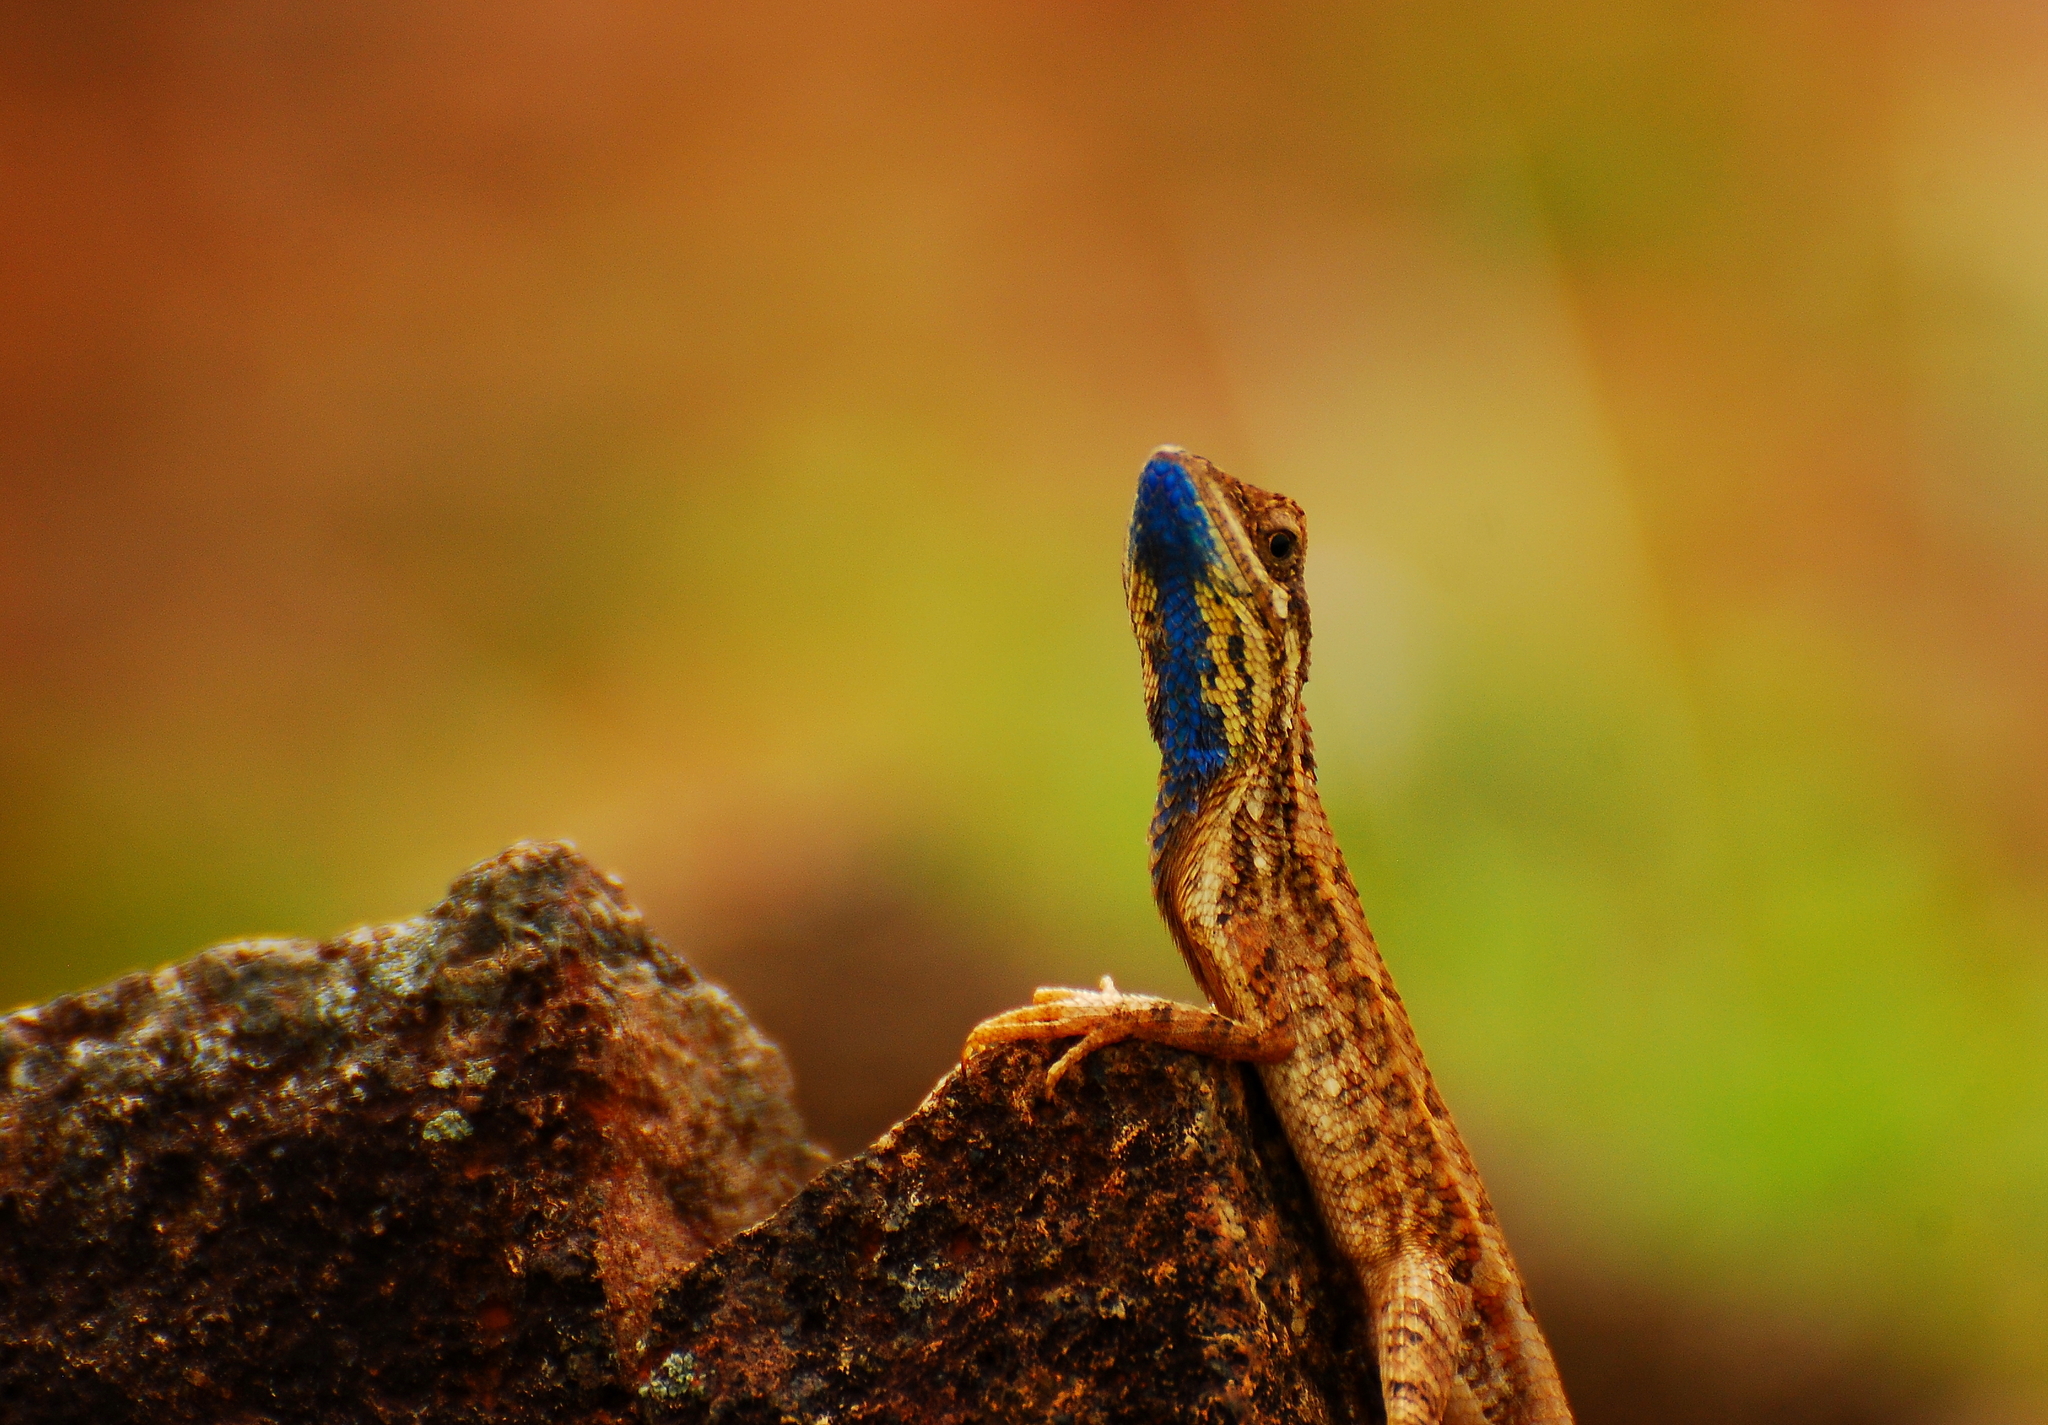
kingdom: Animalia
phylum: Chordata
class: Squamata
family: Agamidae
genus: Sitana
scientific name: Sitana ponticeriana
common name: Pondichéry fan throated lizard
